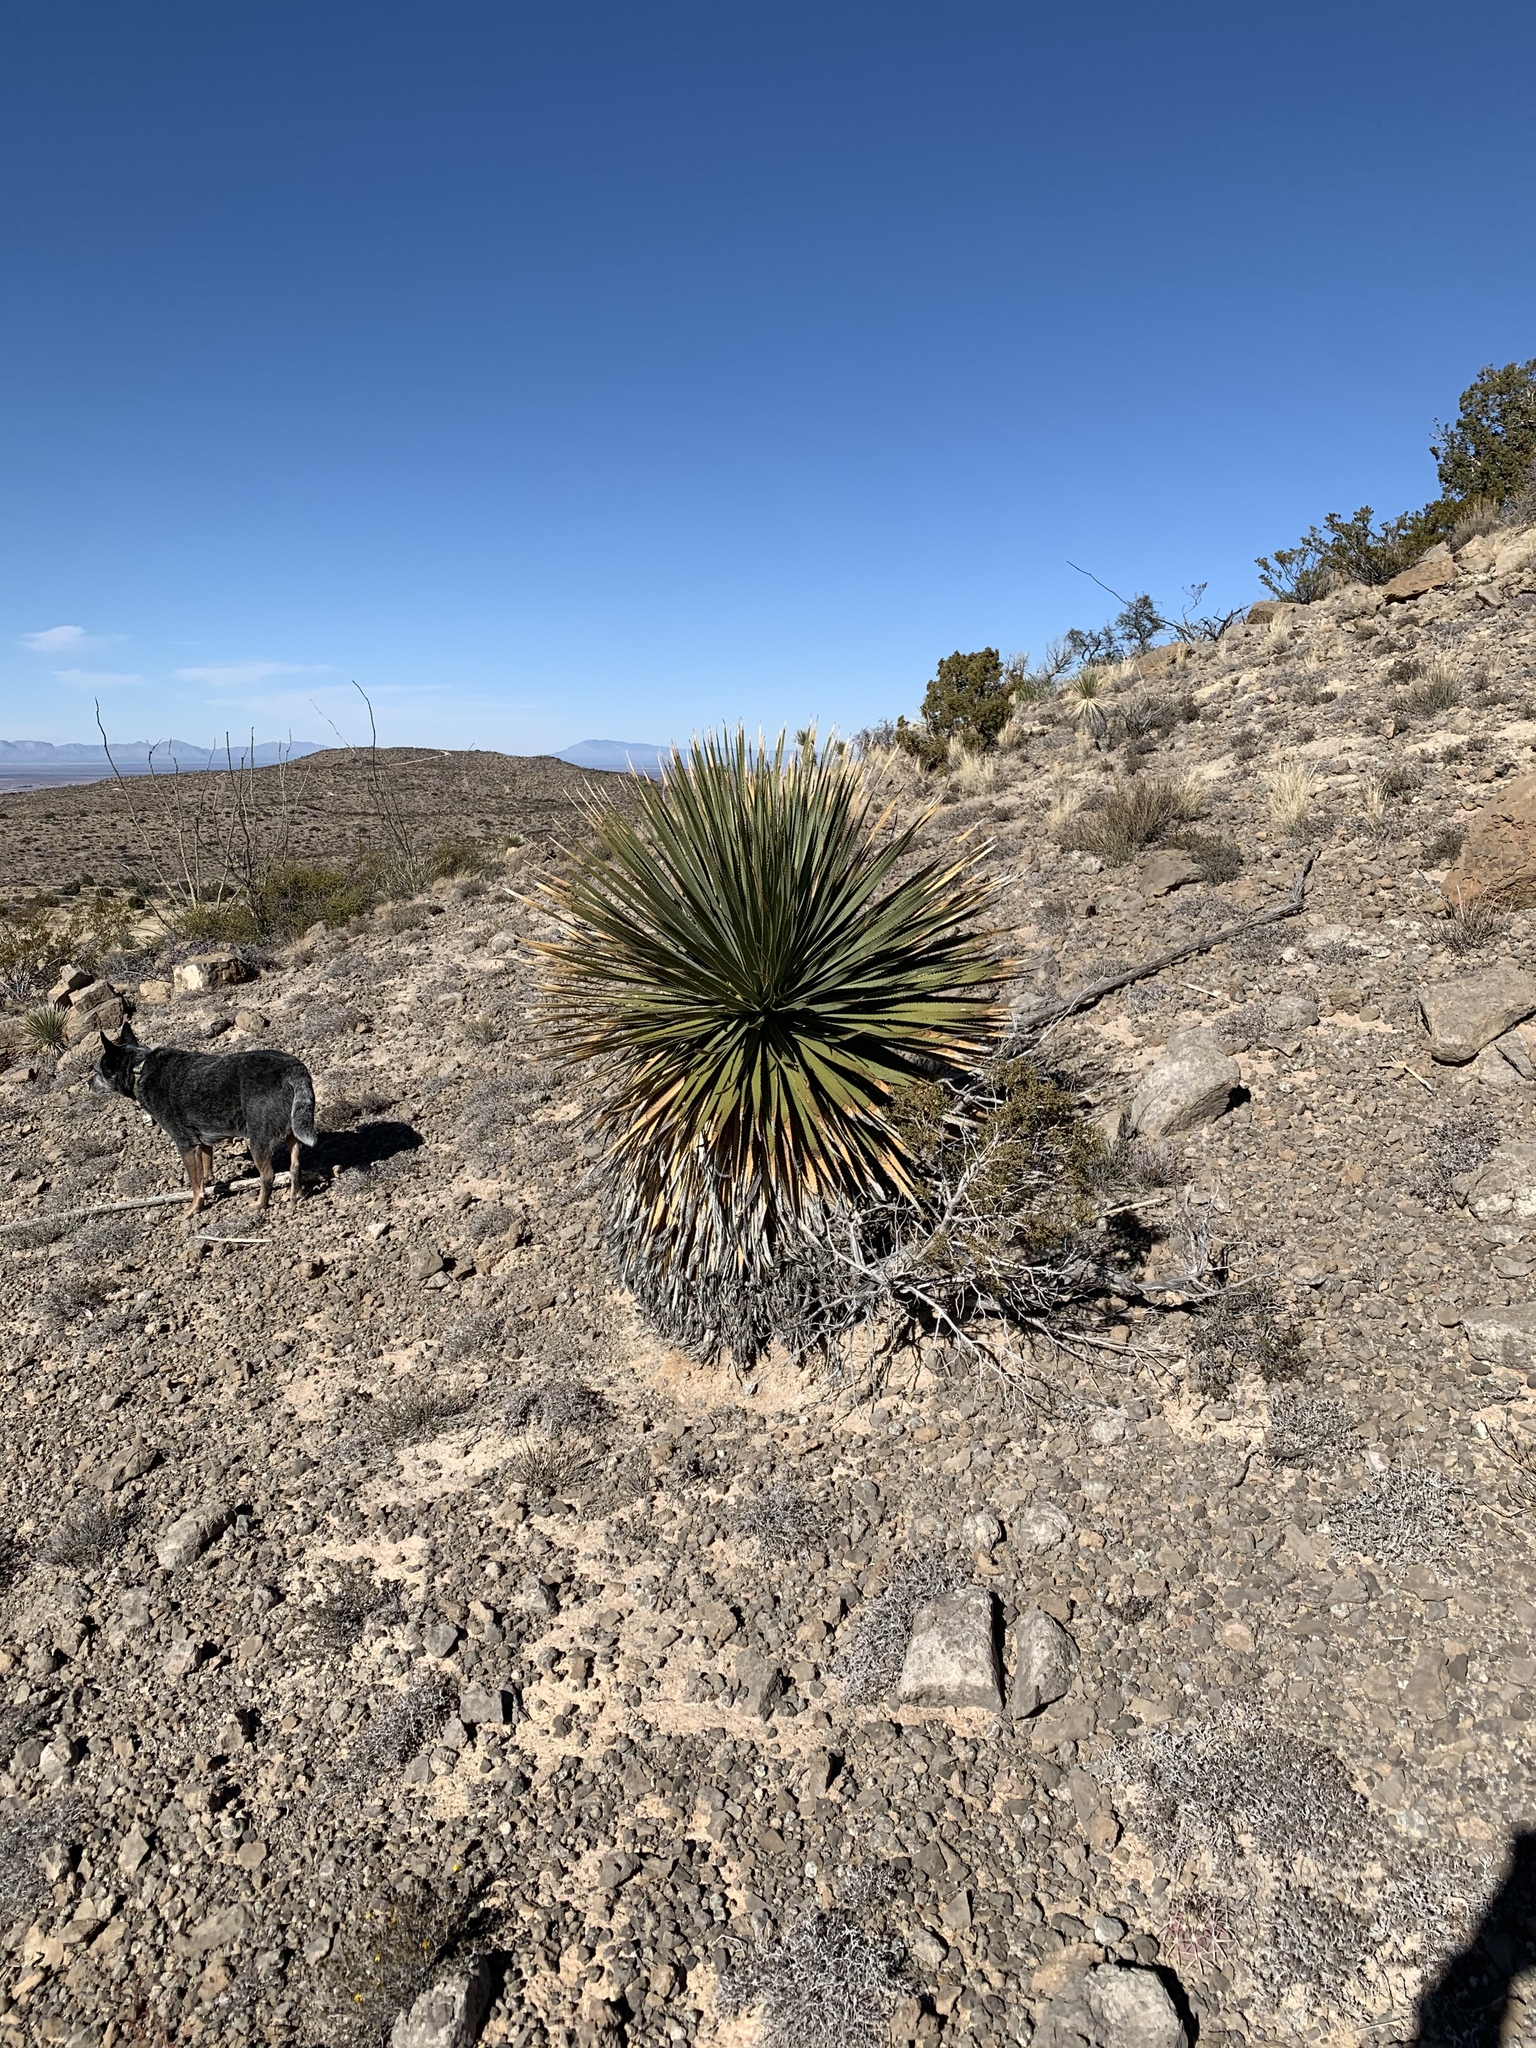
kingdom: Plantae
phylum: Tracheophyta
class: Liliopsida
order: Asparagales
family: Asparagaceae
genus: Dasylirion
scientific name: Dasylirion wheeleri
